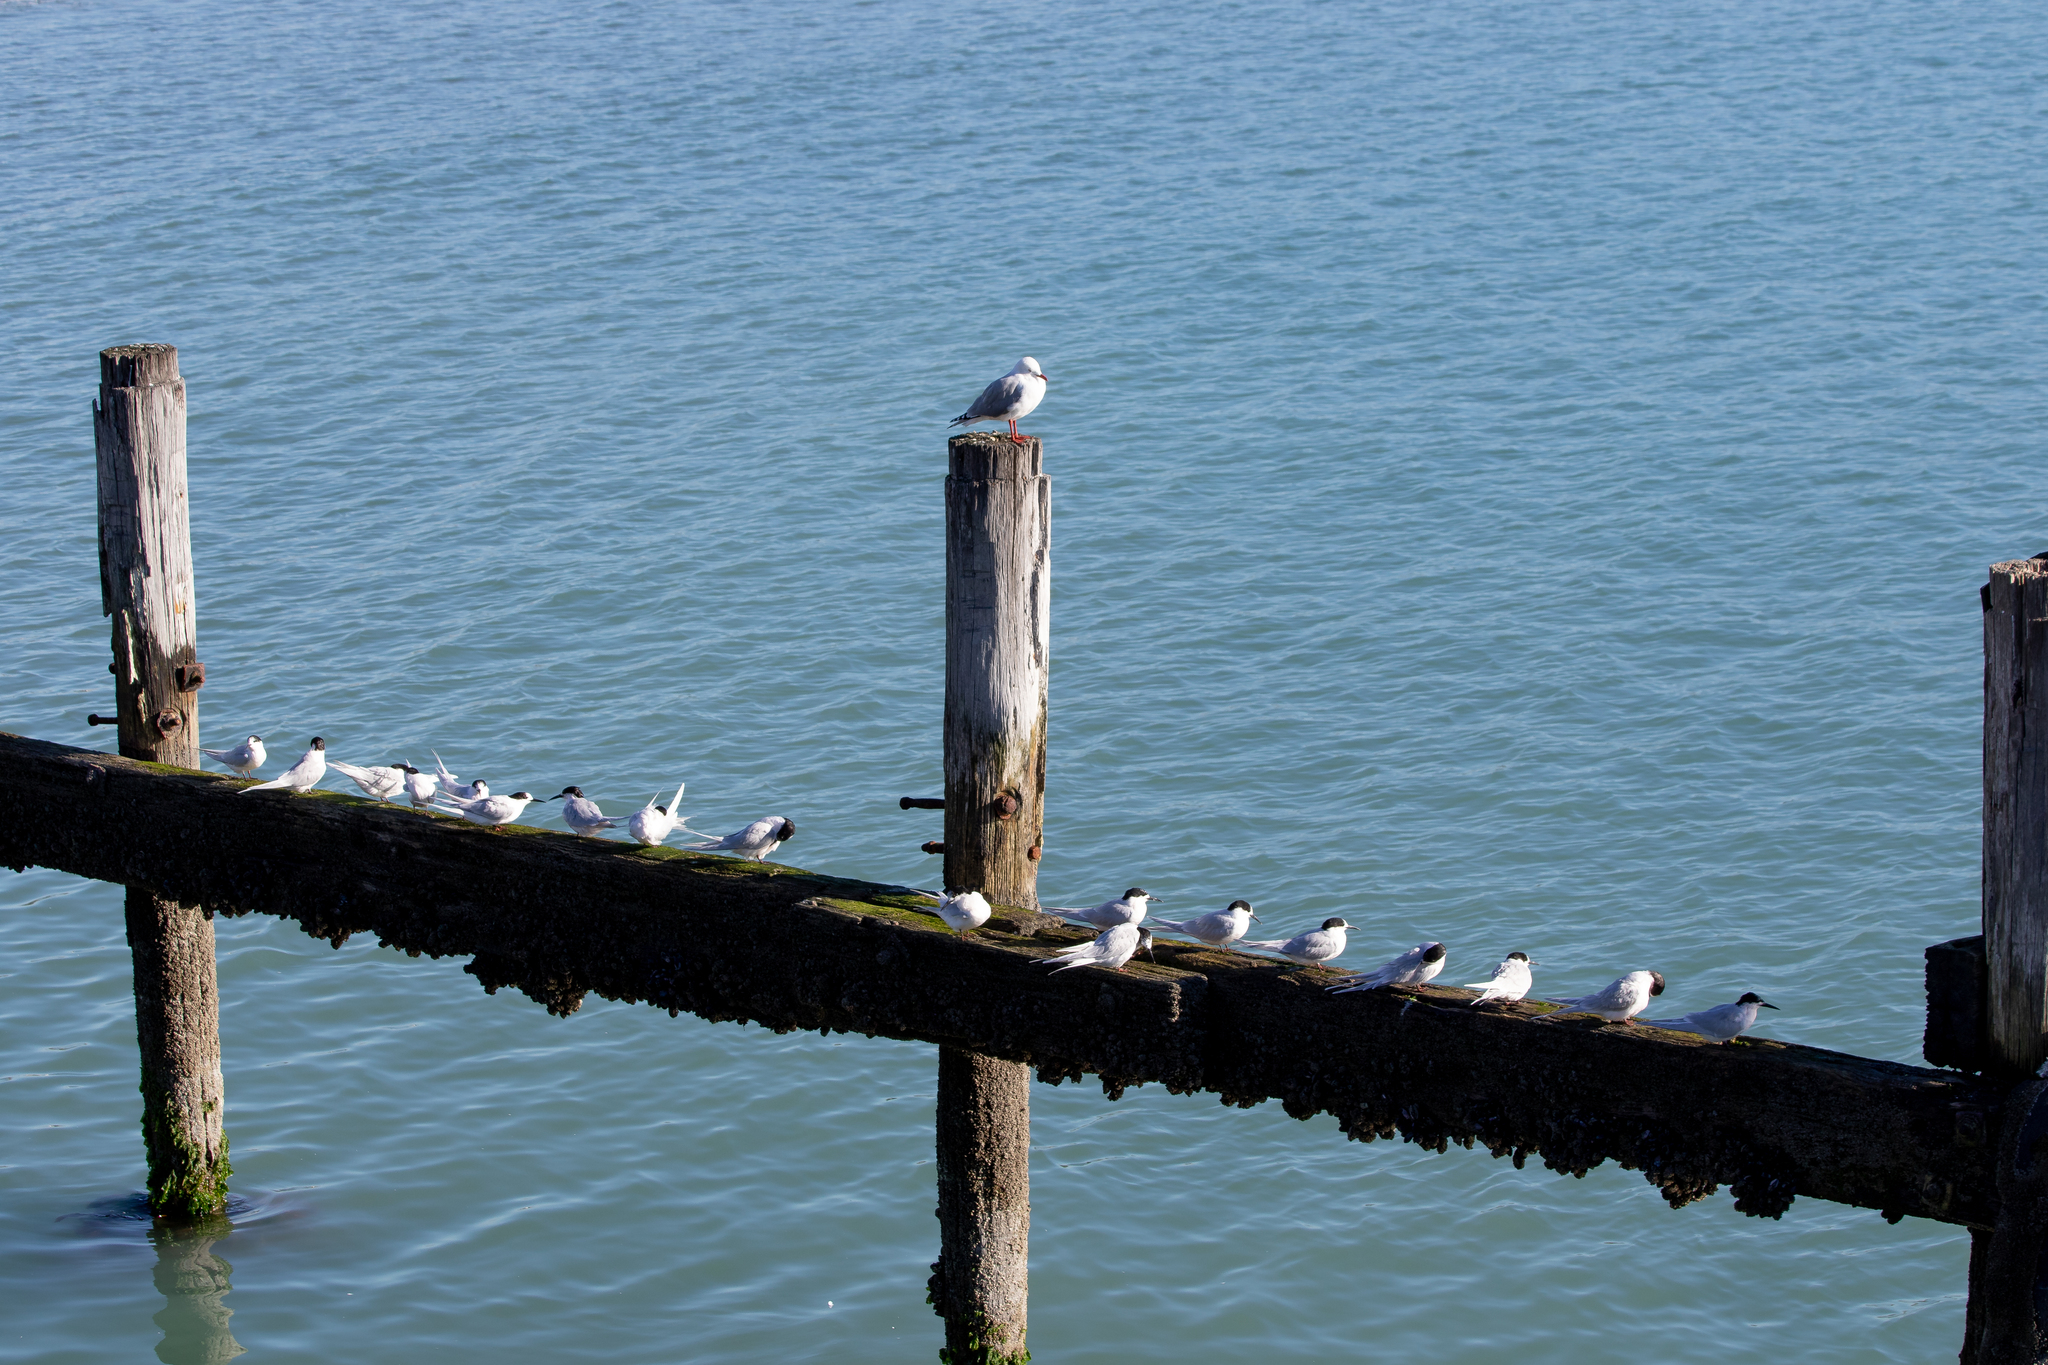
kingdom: Animalia
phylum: Chordata
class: Aves
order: Charadriiformes
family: Laridae
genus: Sterna
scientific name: Sterna striata
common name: White-fronted tern
